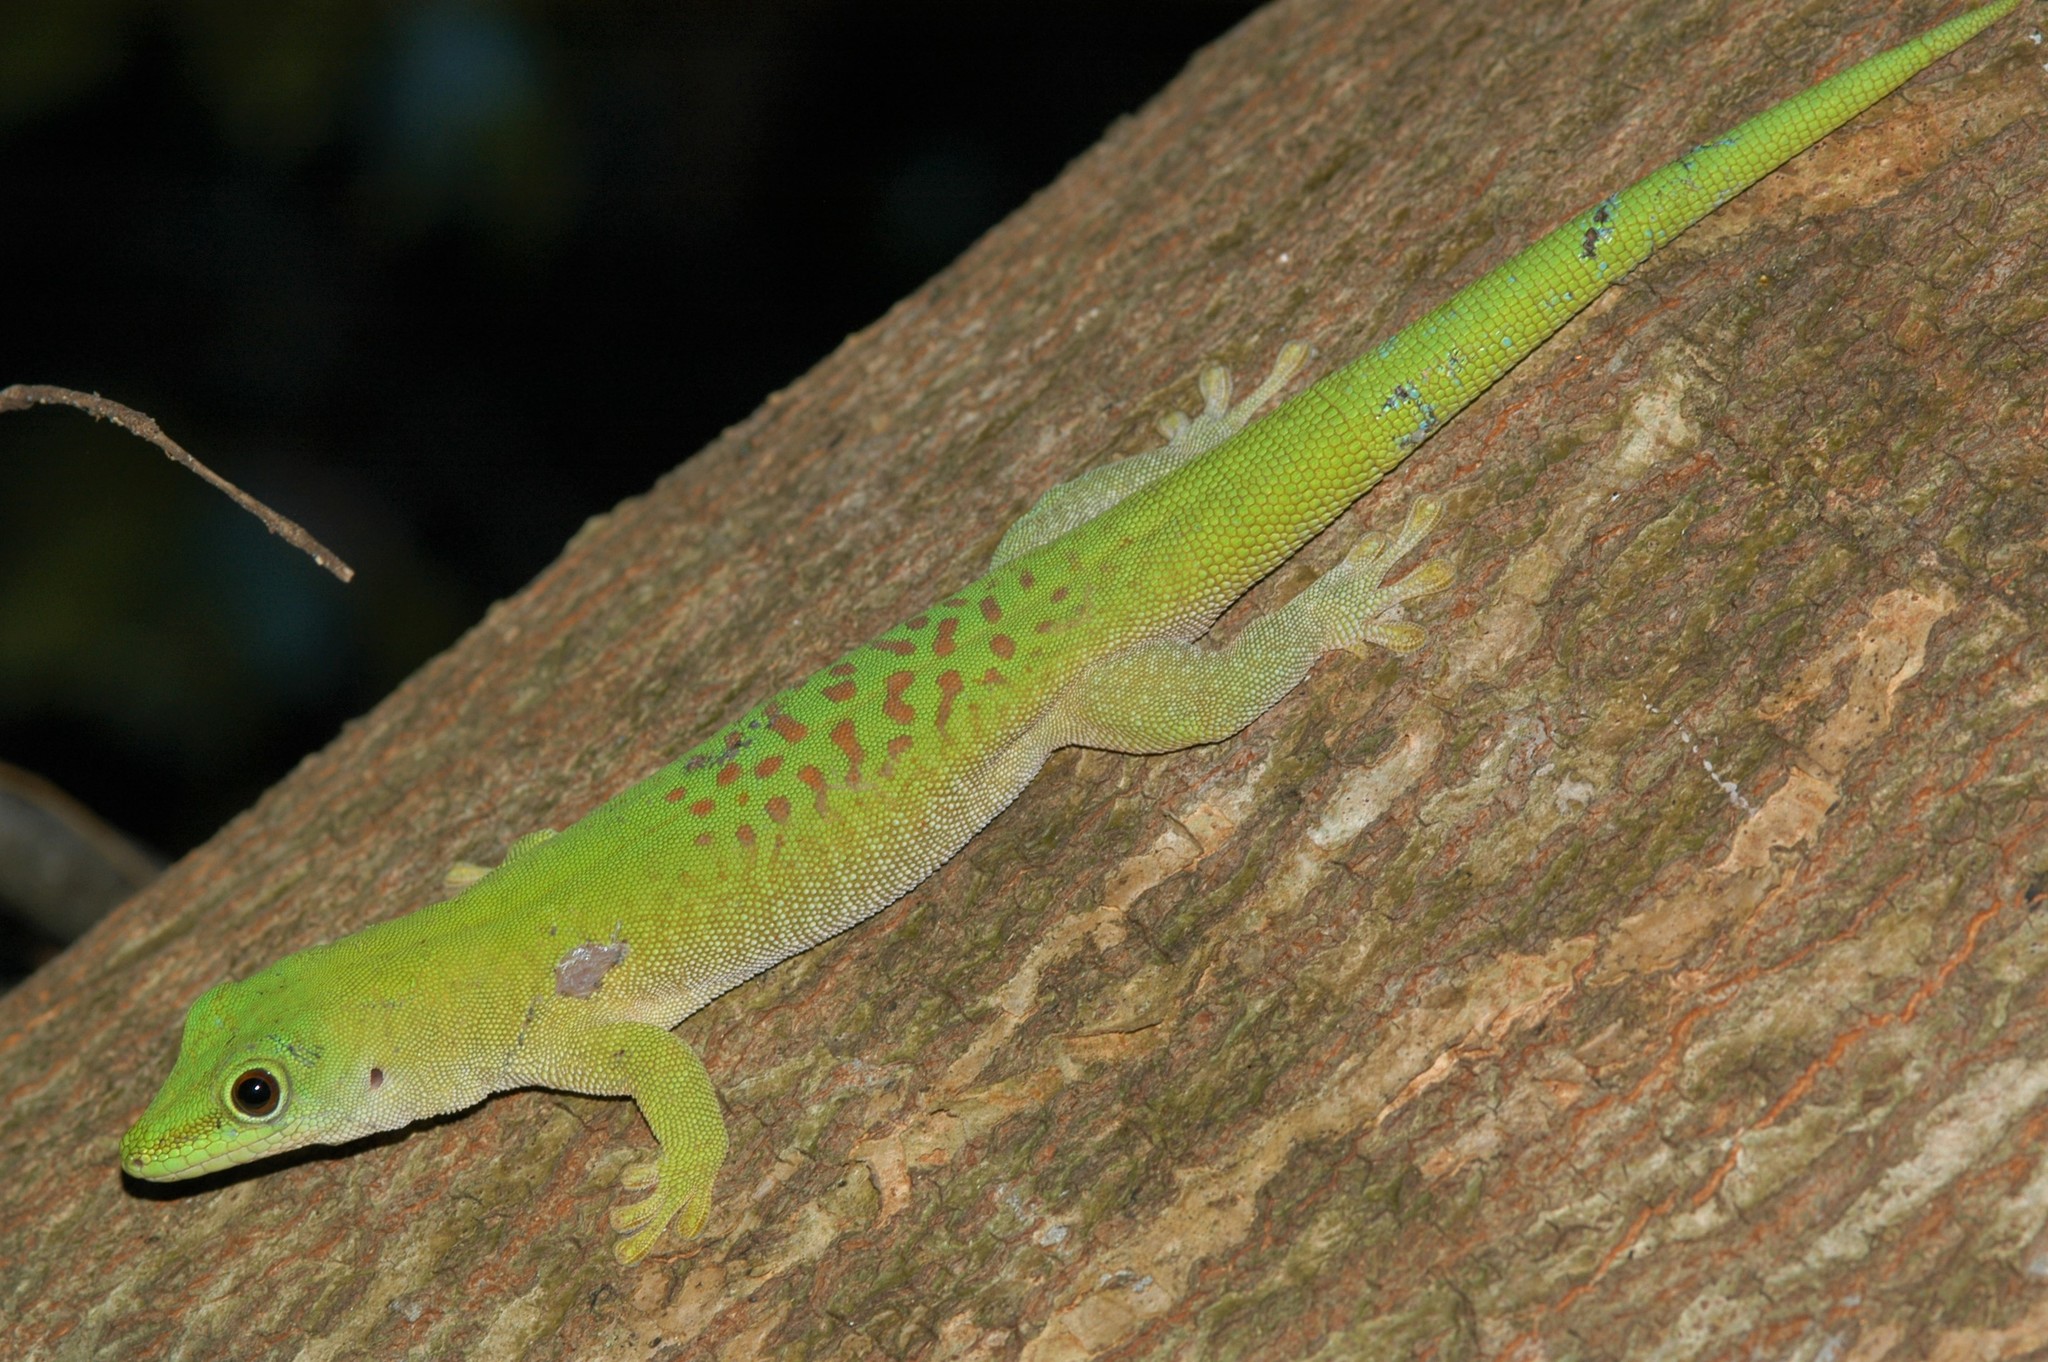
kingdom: Animalia
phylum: Chordata
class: Squamata
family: Gekkonidae
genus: Phelsuma
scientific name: Phelsuma kochi
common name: Madagascar day gecko
